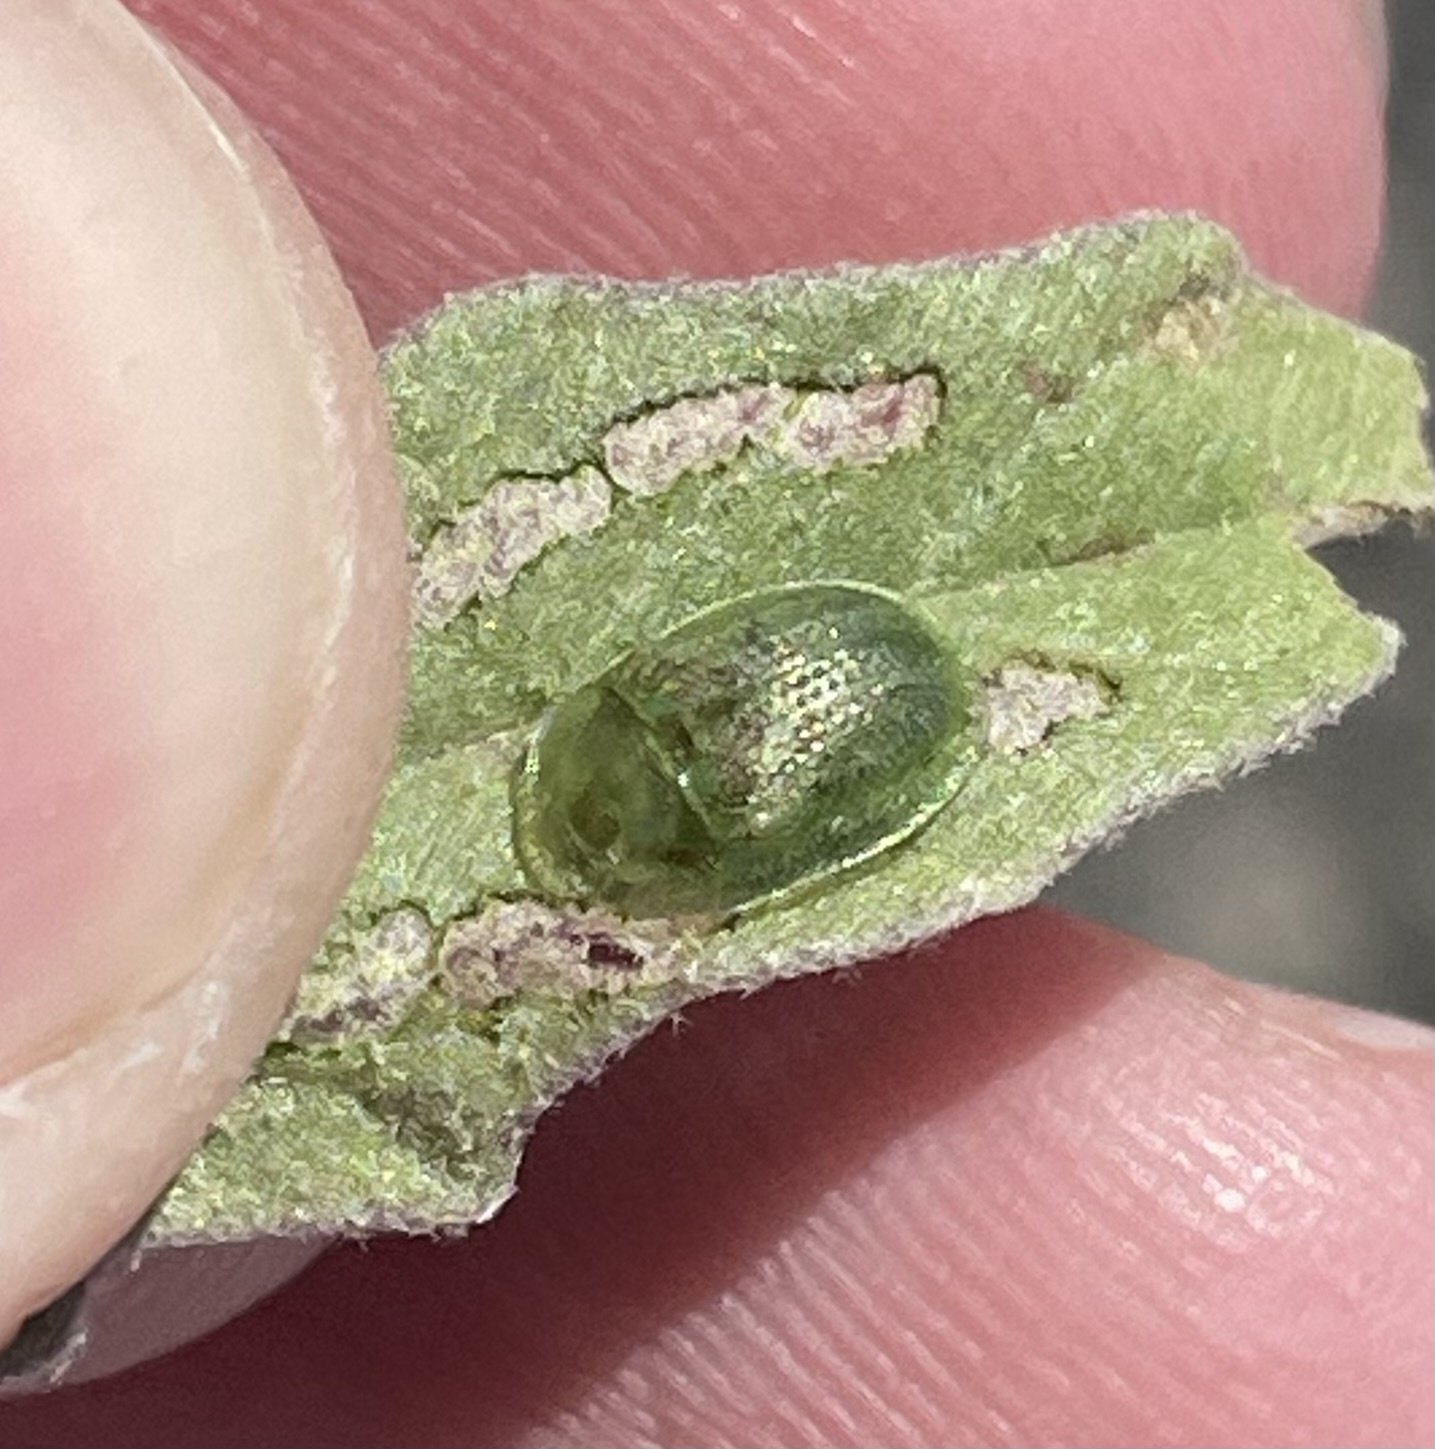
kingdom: Animalia
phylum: Arthropoda
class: Insecta
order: Coleoptera
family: Chrysomelidae
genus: Gratiana
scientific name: Gratiana pallidula
